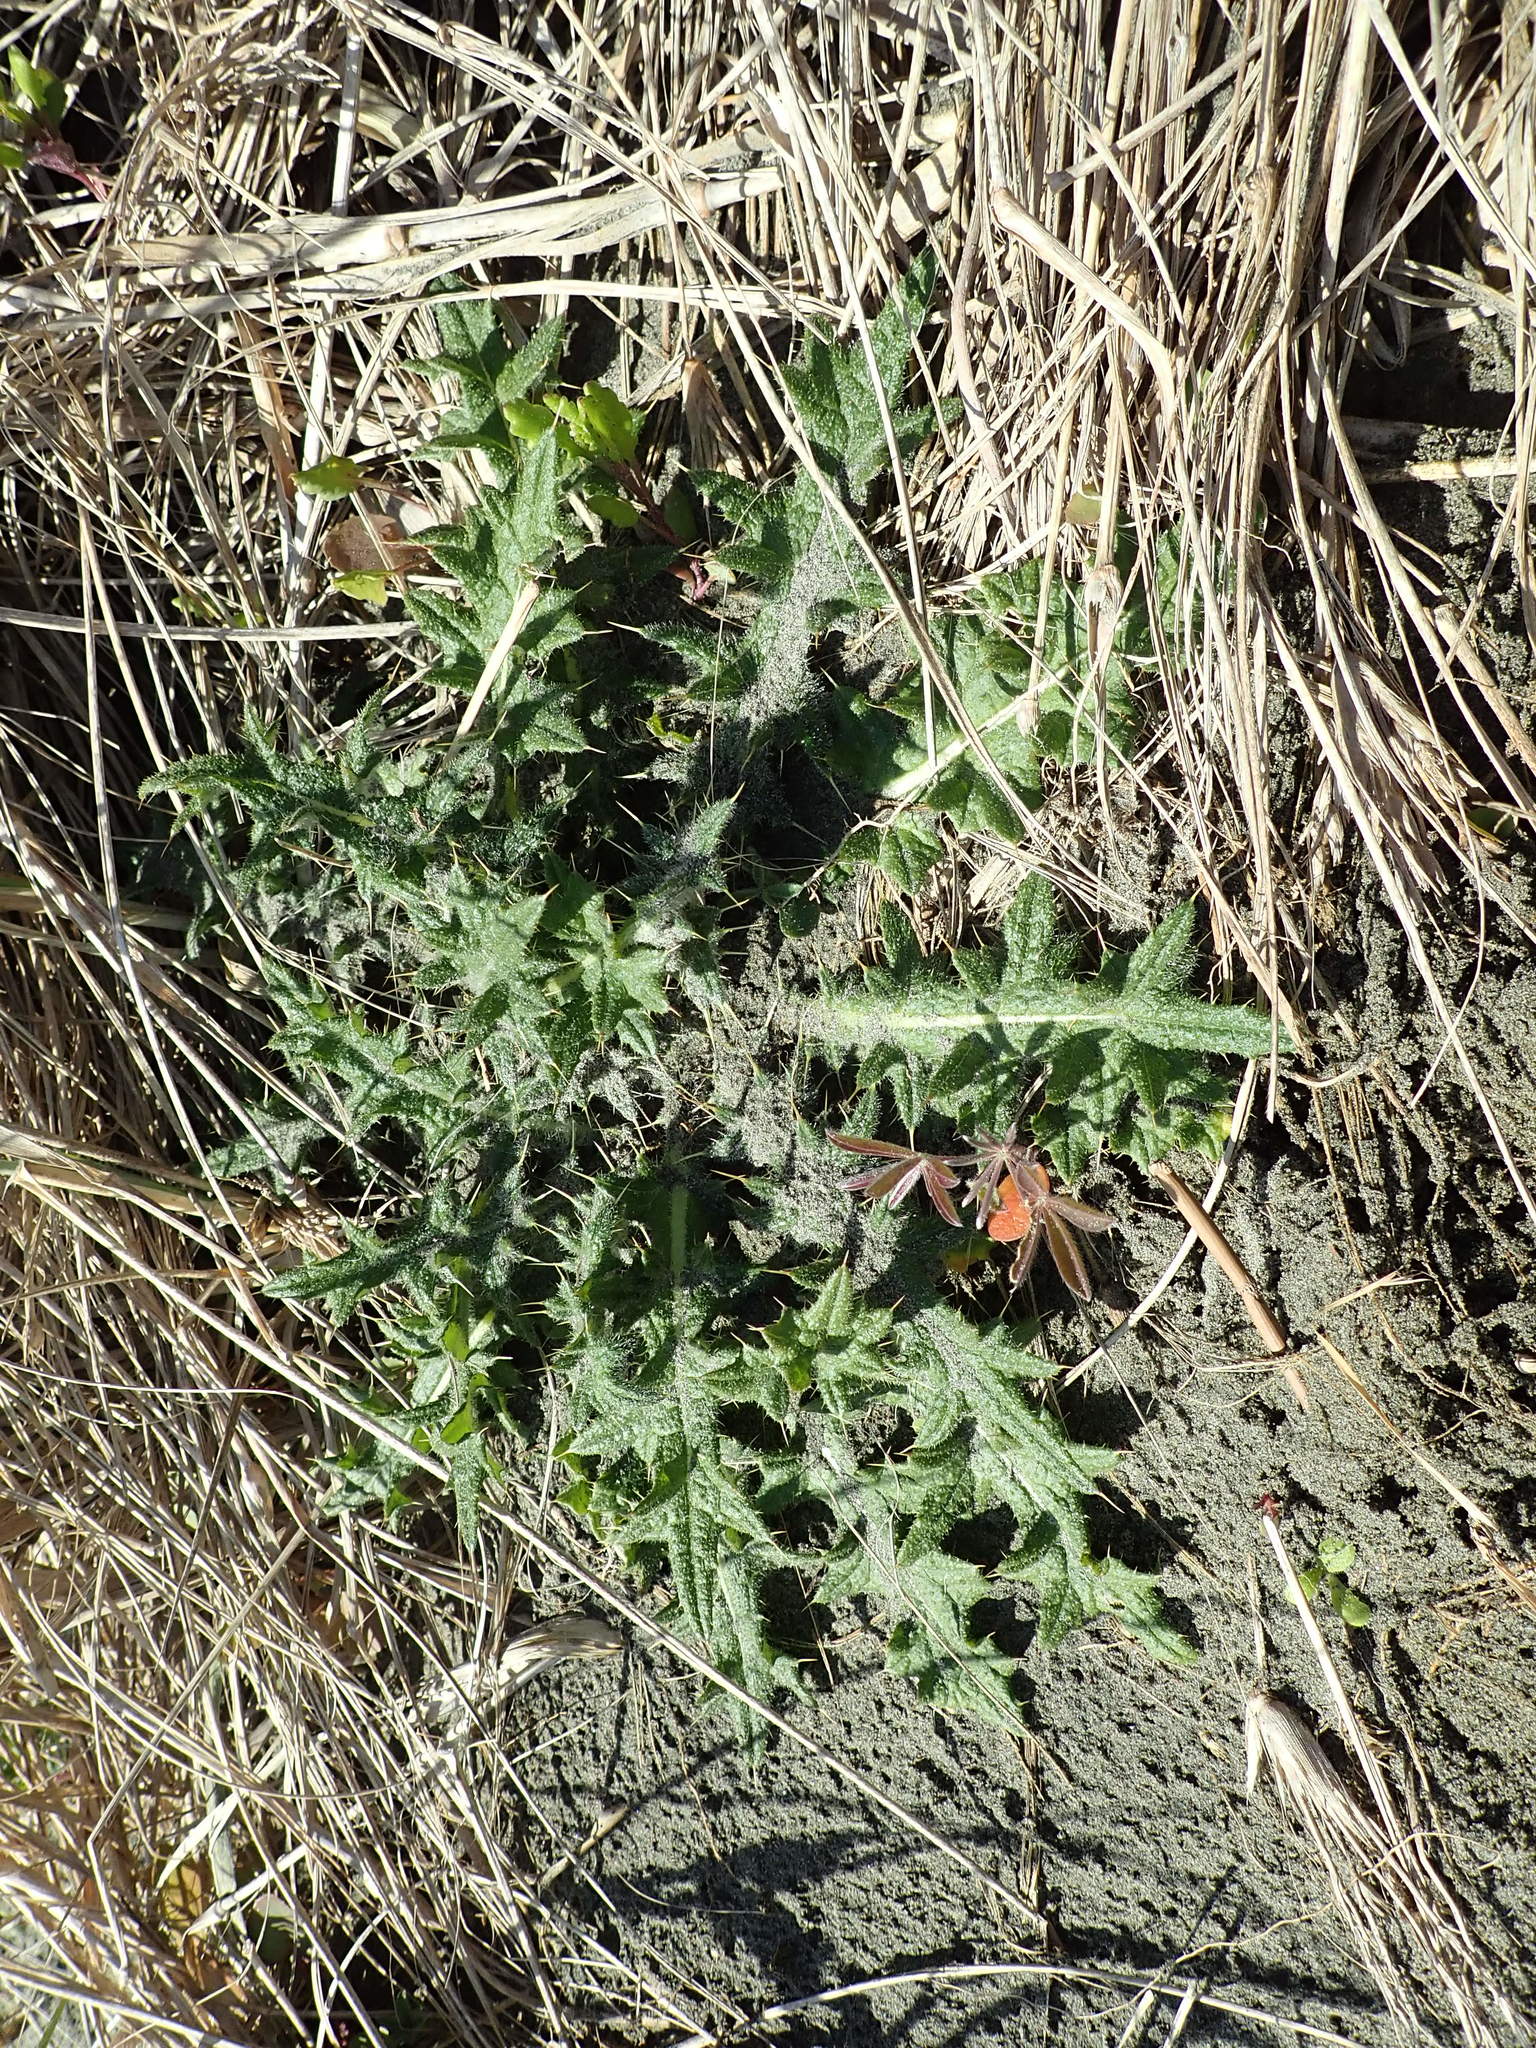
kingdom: Plantae
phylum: Tracheophyta
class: Magnoliopsida
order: Asterales
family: Asteraceae
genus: Cirsium
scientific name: Cirsium vulgare
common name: Bull thistle
